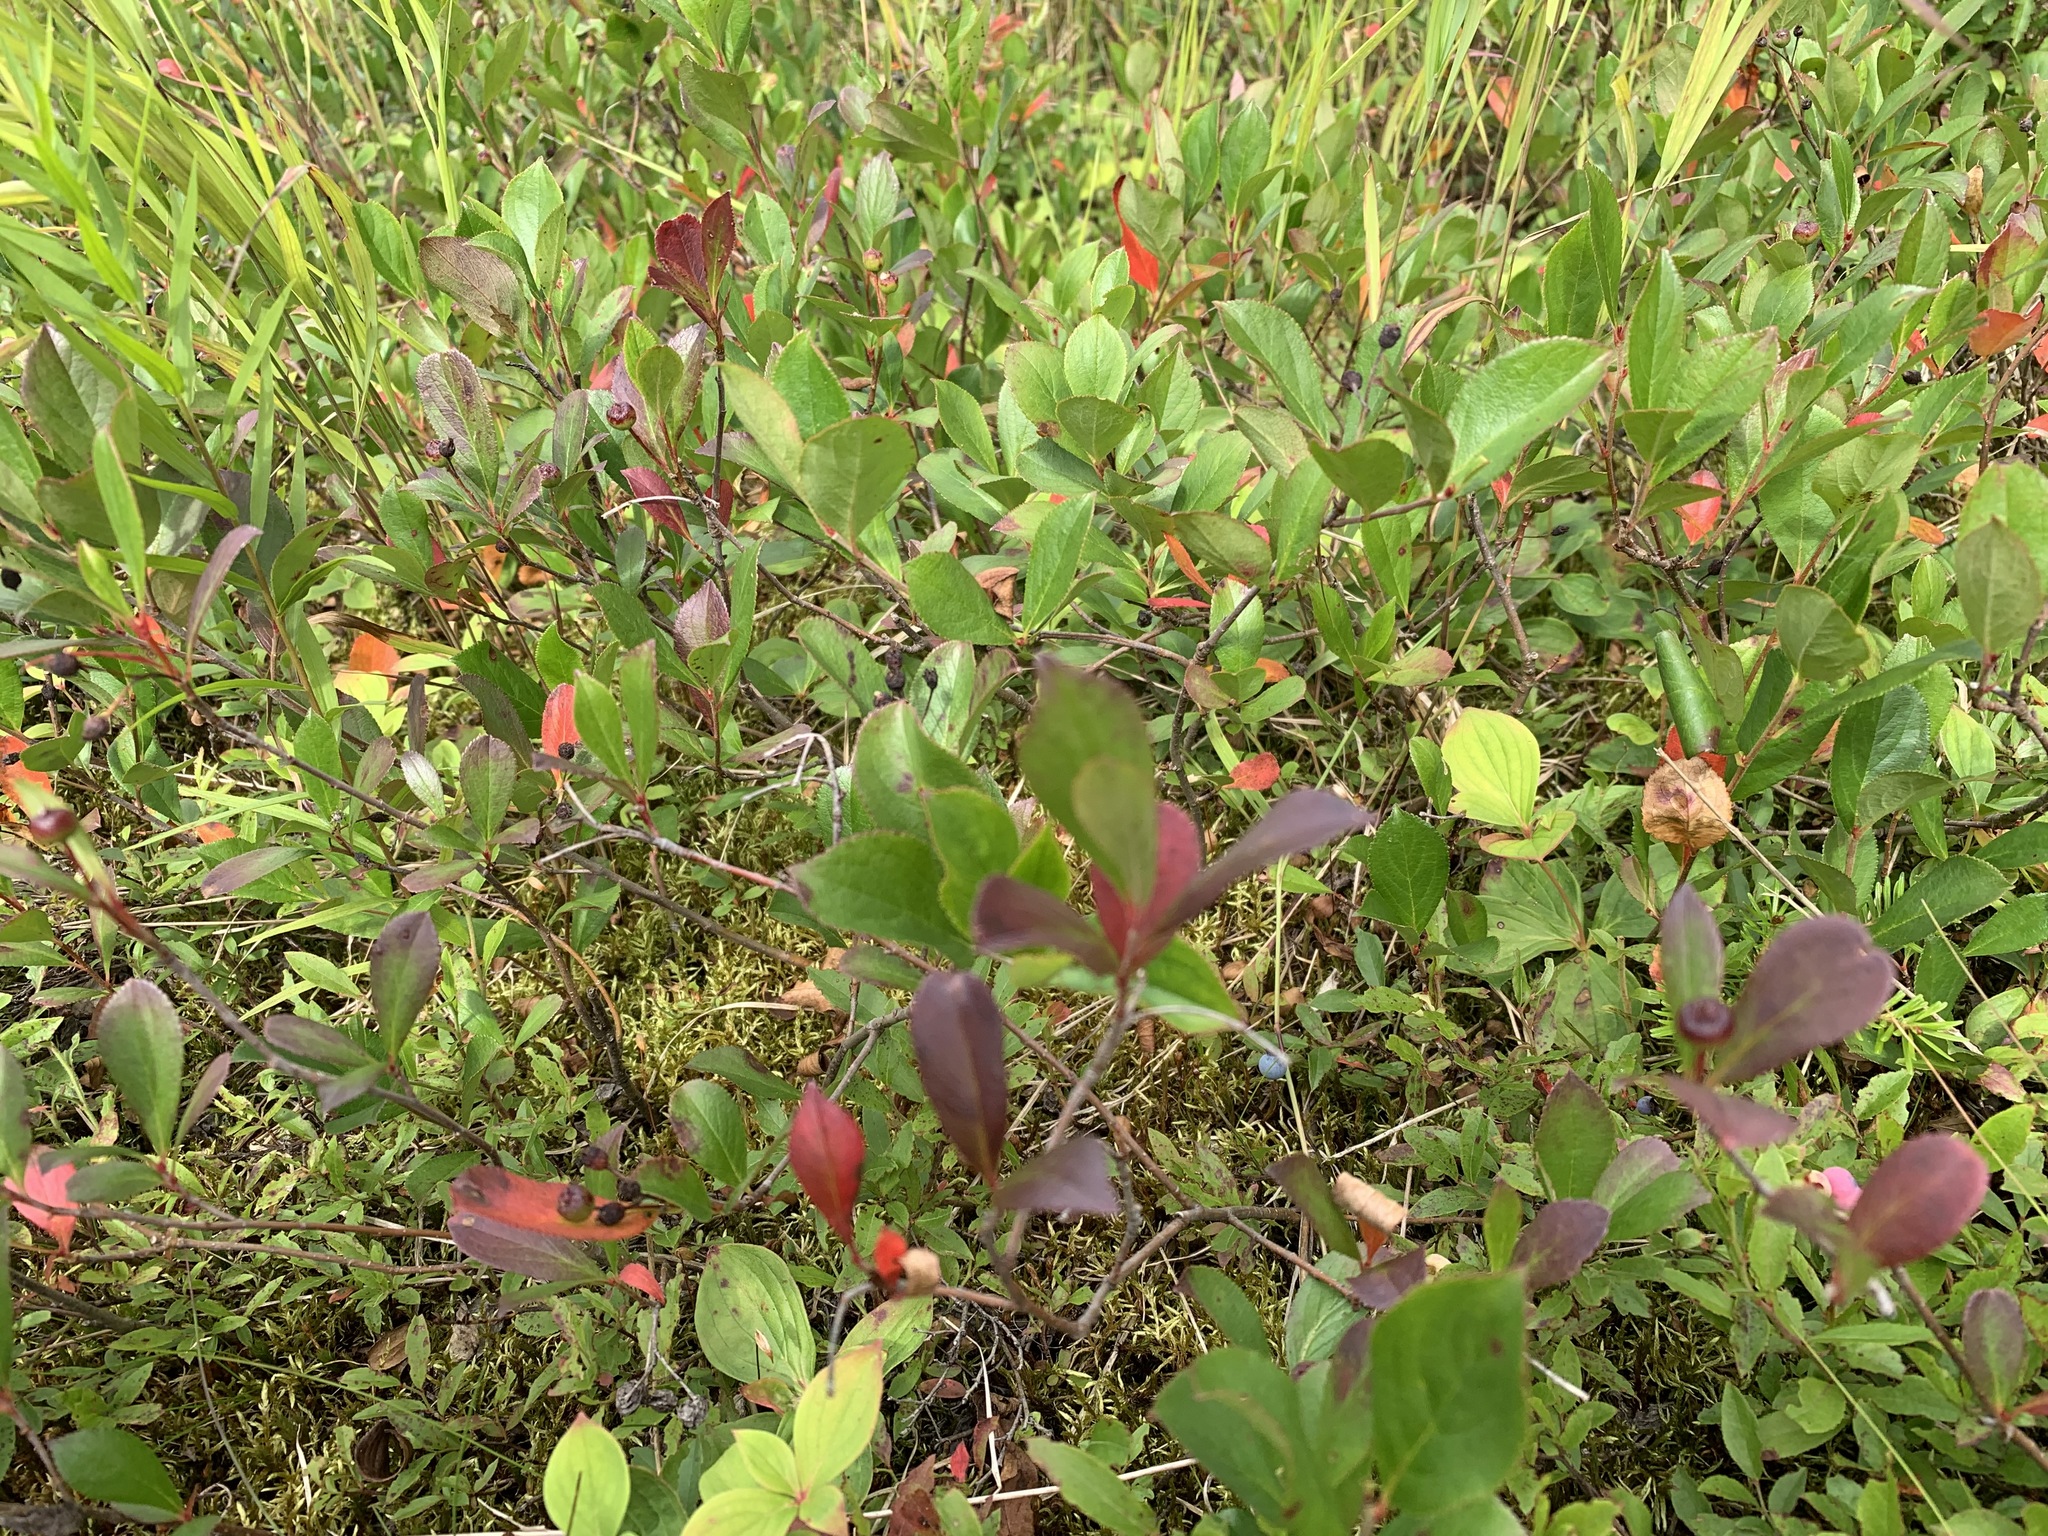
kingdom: Plantae
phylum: Tracheophyta
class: Magnoliopsida
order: Rosales
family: Rosaceae
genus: Aronia
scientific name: Aronia melanocarpa
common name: Black chokeberry
